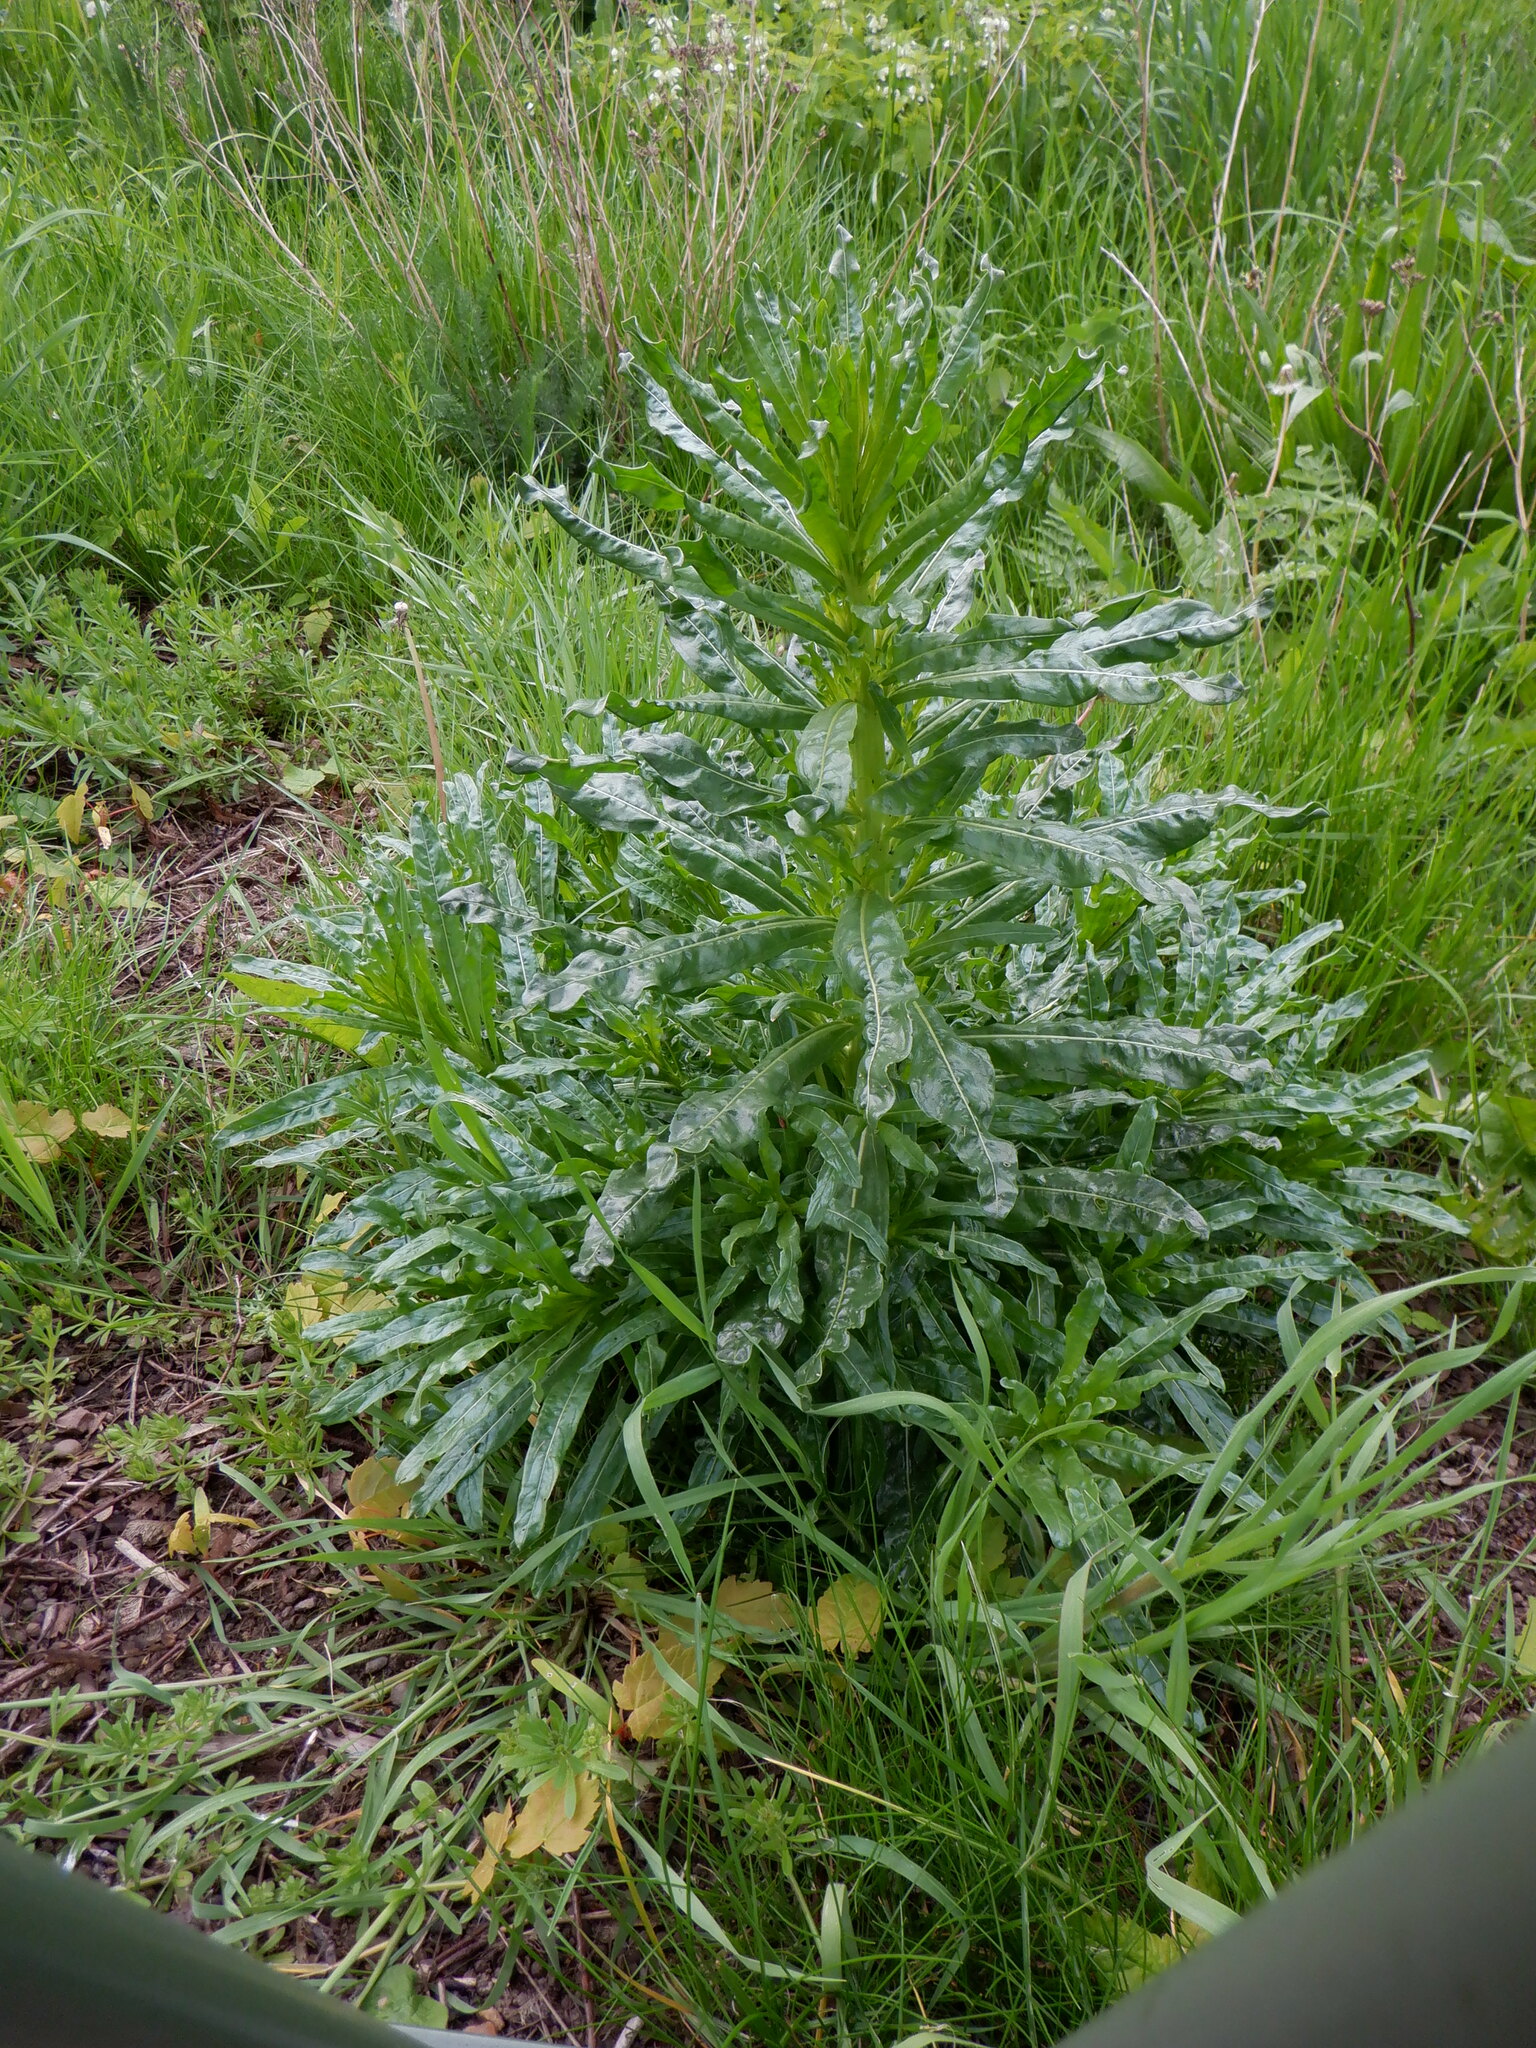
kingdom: Plantae
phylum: Tracheophyta
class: Magnoliopsida
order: Brassicales
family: Resedaceae
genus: Reseda
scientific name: Reseda luteola
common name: Weld
